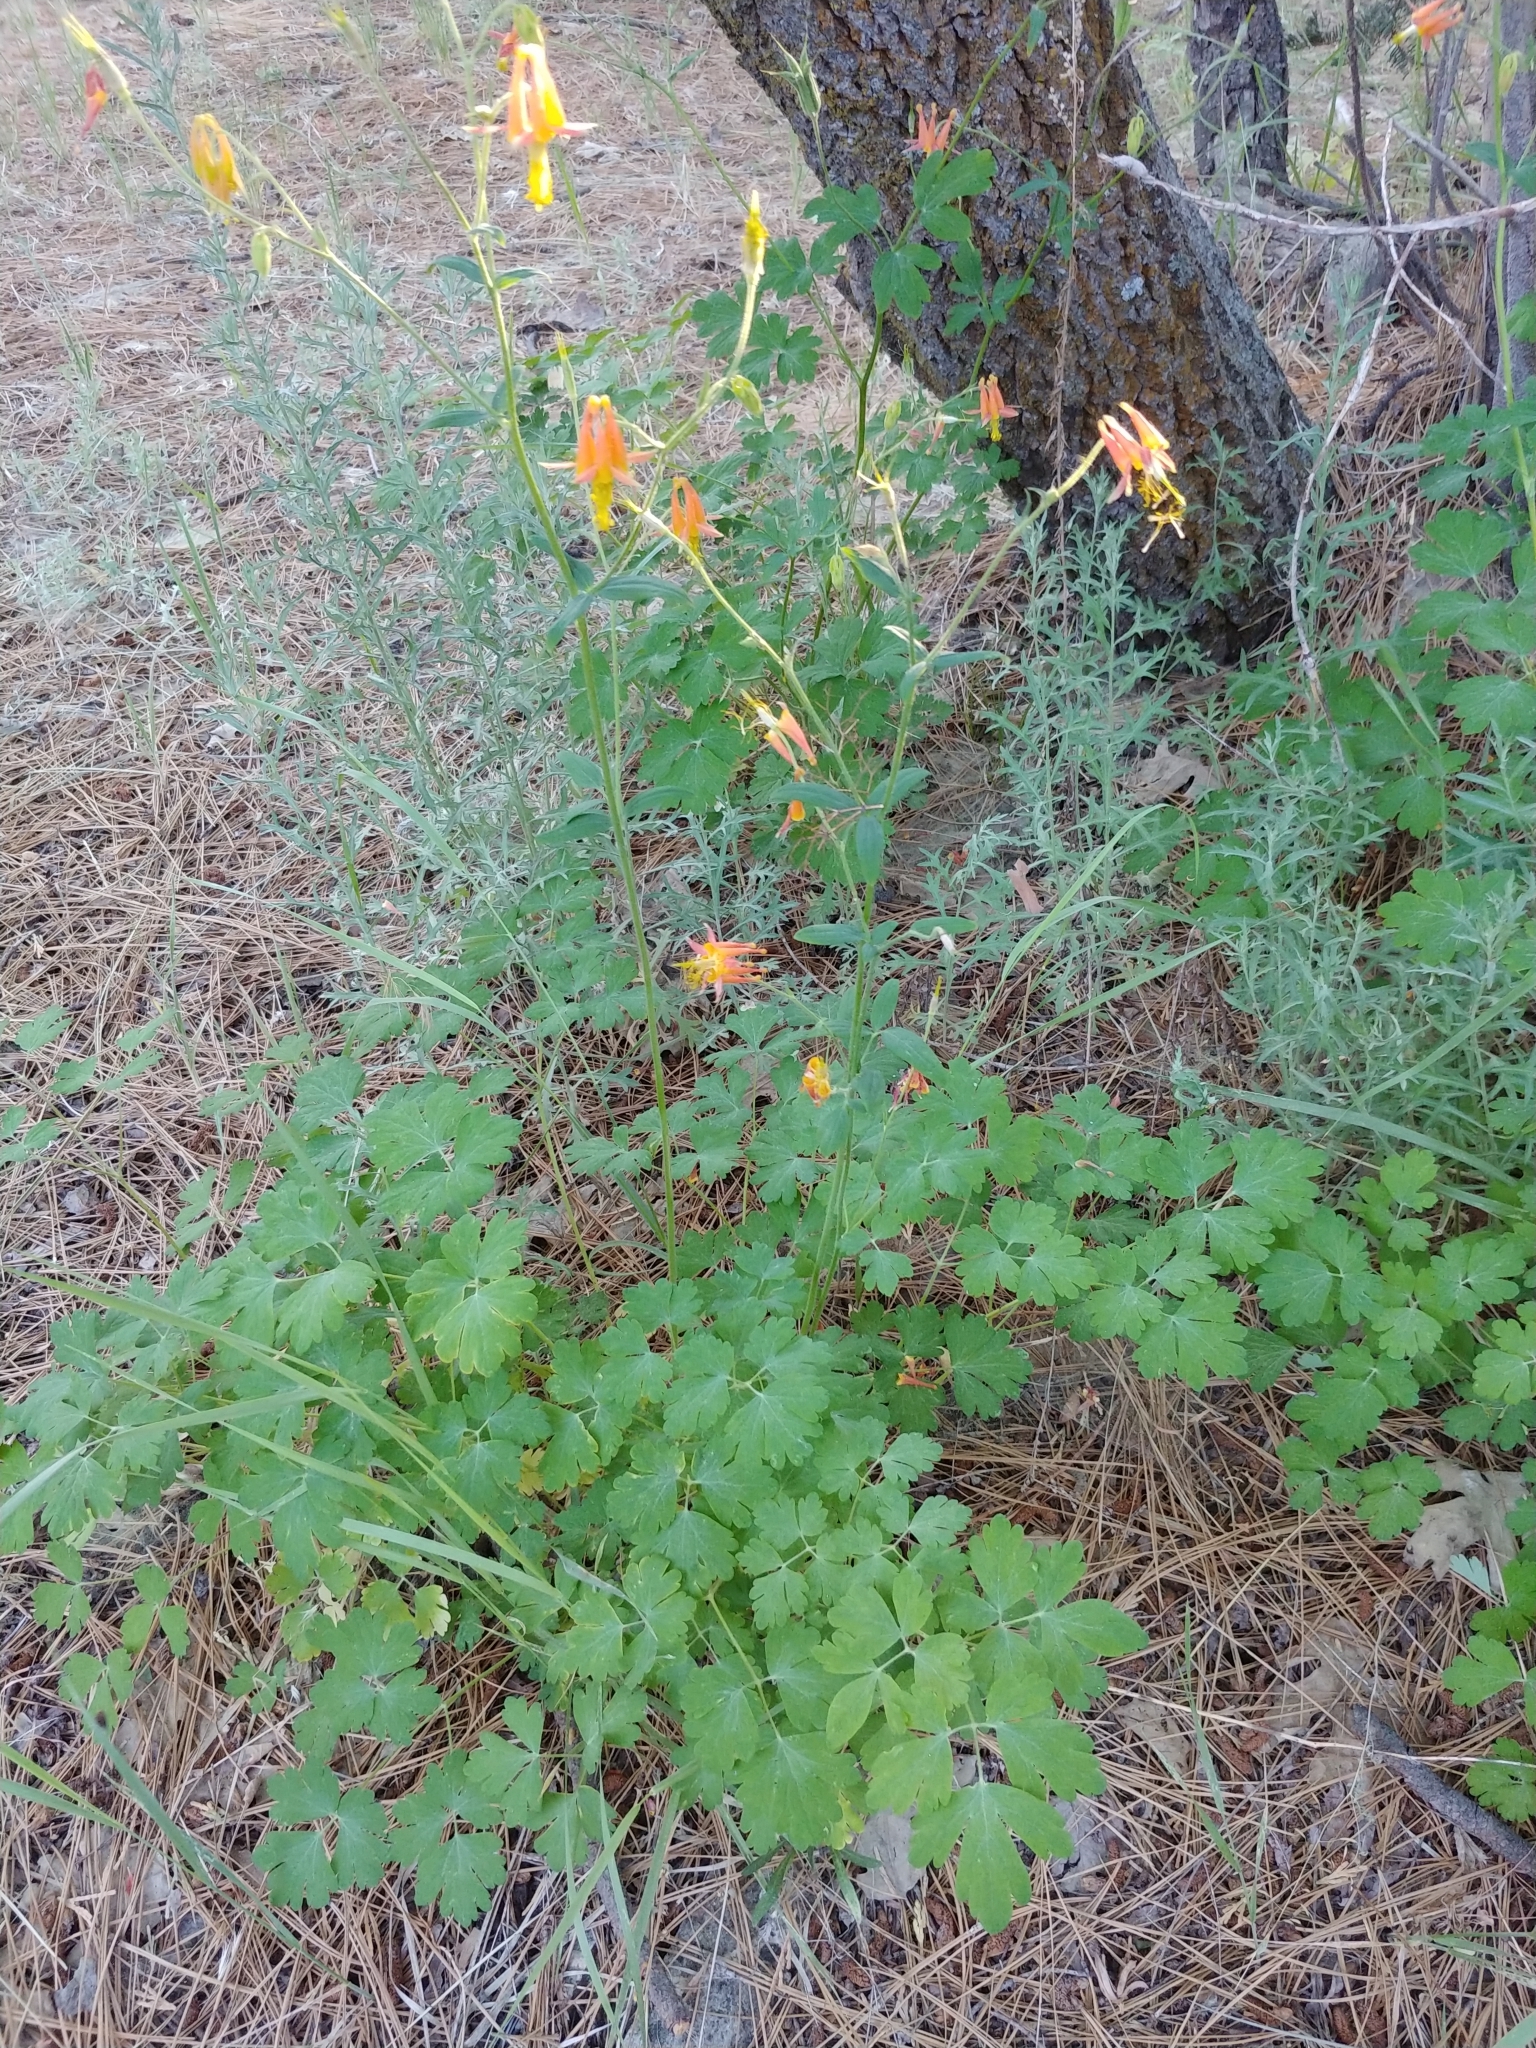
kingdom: Plantae
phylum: Tracheophyta
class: Magnoliopsida
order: Ranunculales
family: Ranunculaceae
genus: Aquilegia
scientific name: Aquilegia formosa
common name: Sitka columbine
